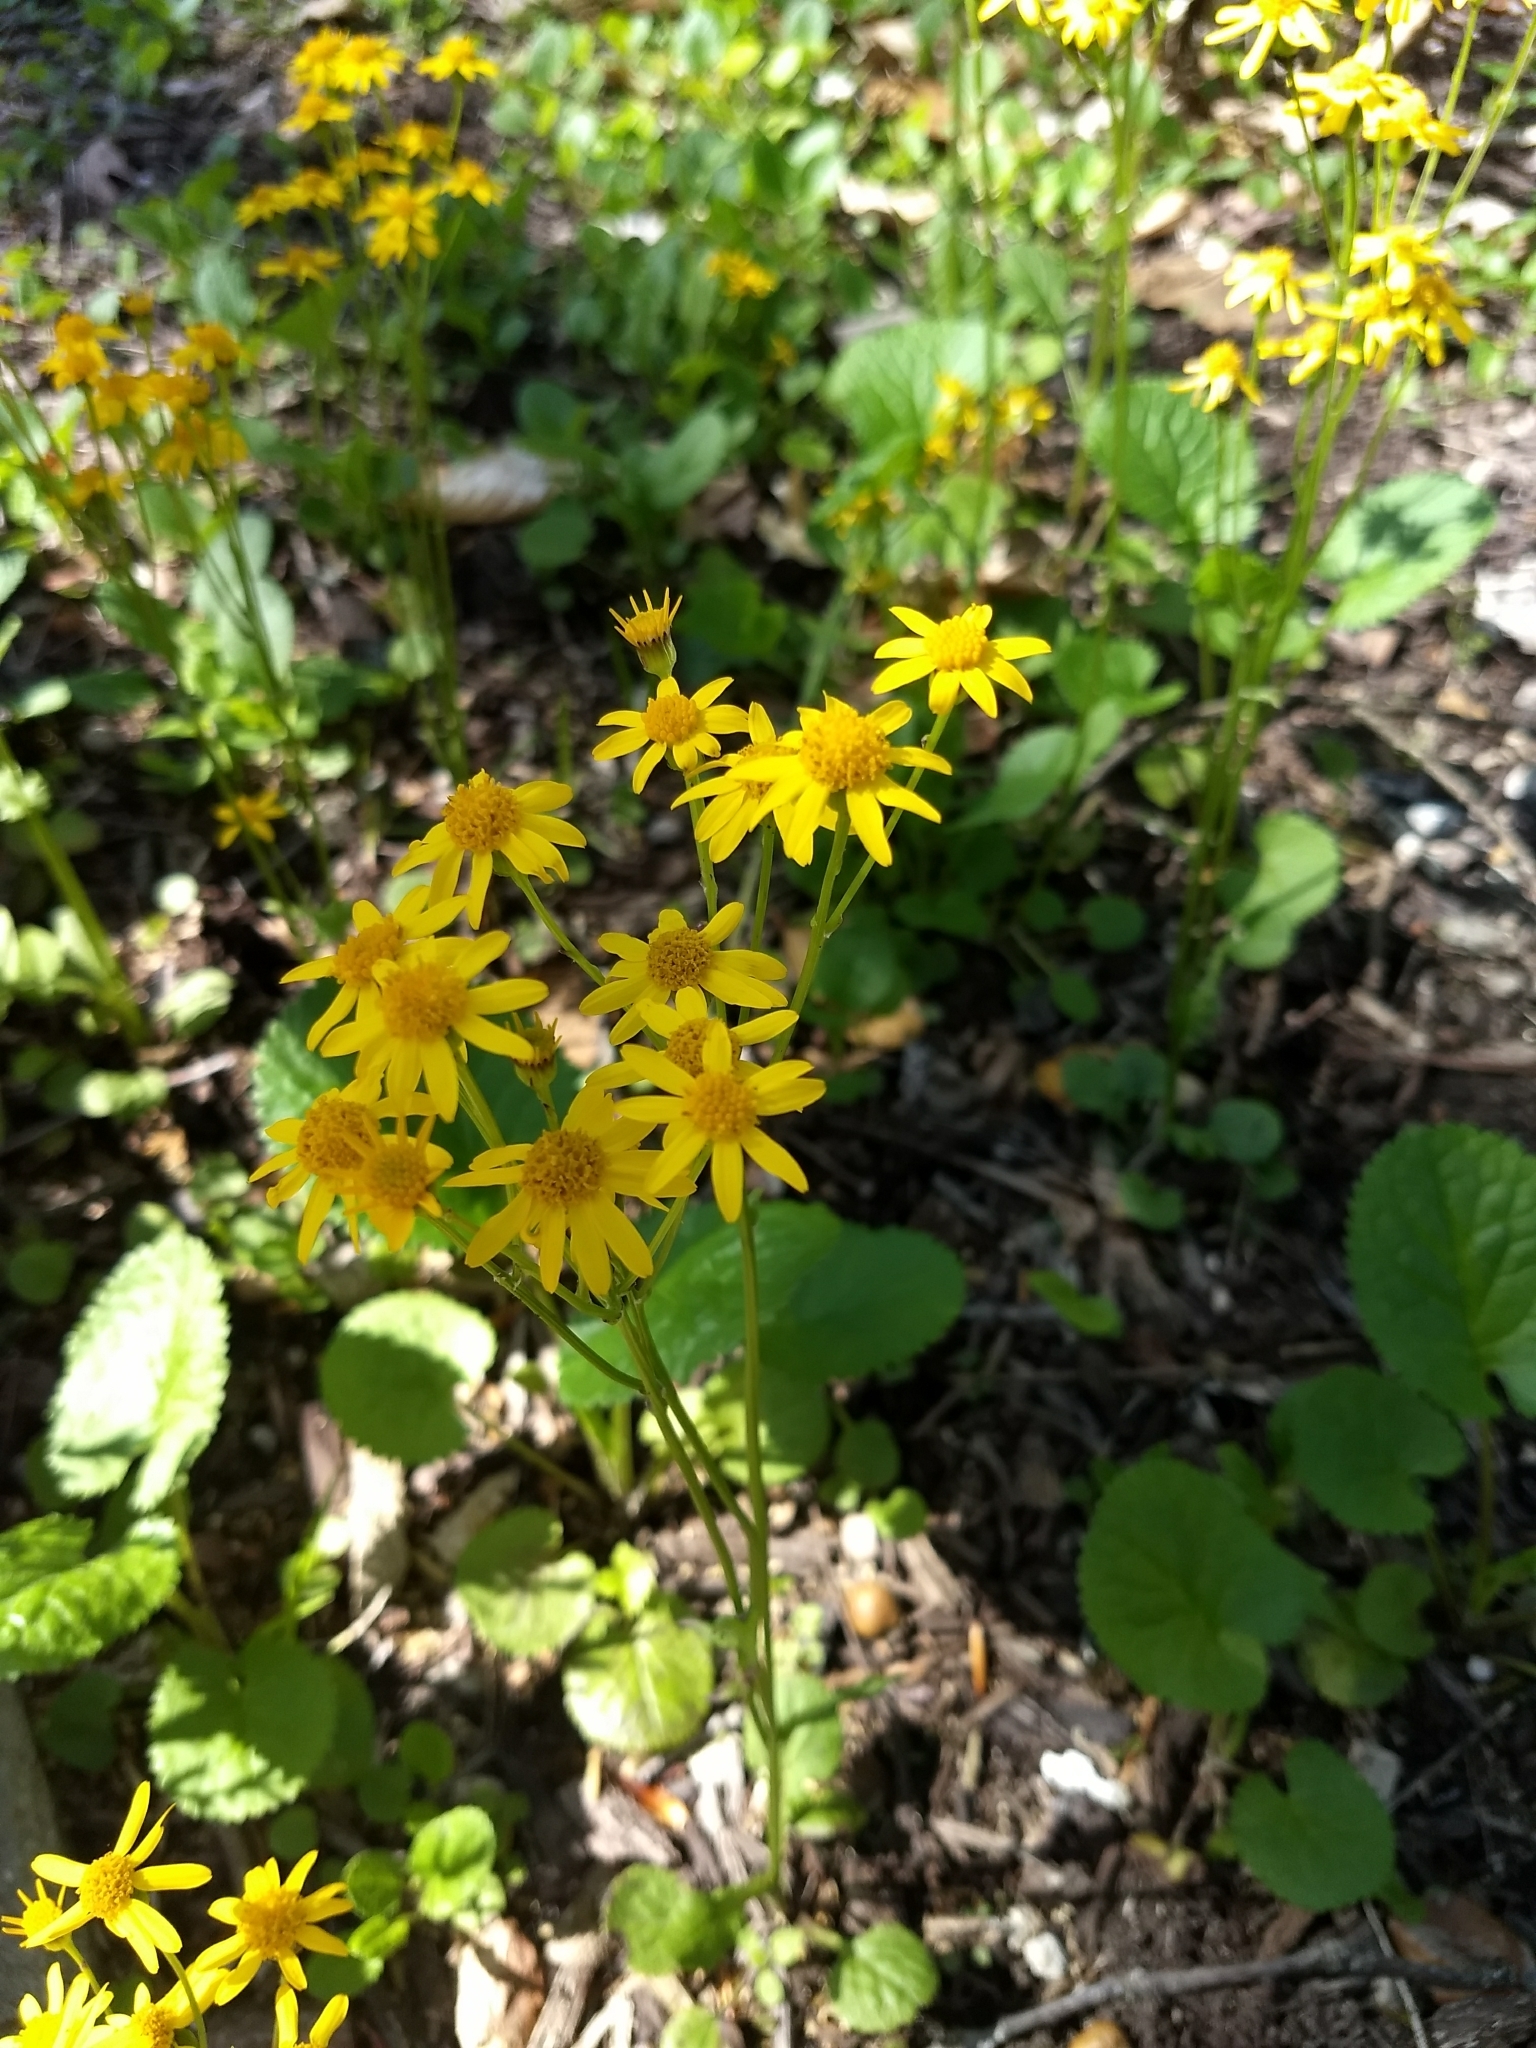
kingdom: Plantae
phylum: Tracheophyta
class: Magnoliopsida
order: Asterales
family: Asteraceae
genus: Packera
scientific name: Packera aurea
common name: Golden groundsel
